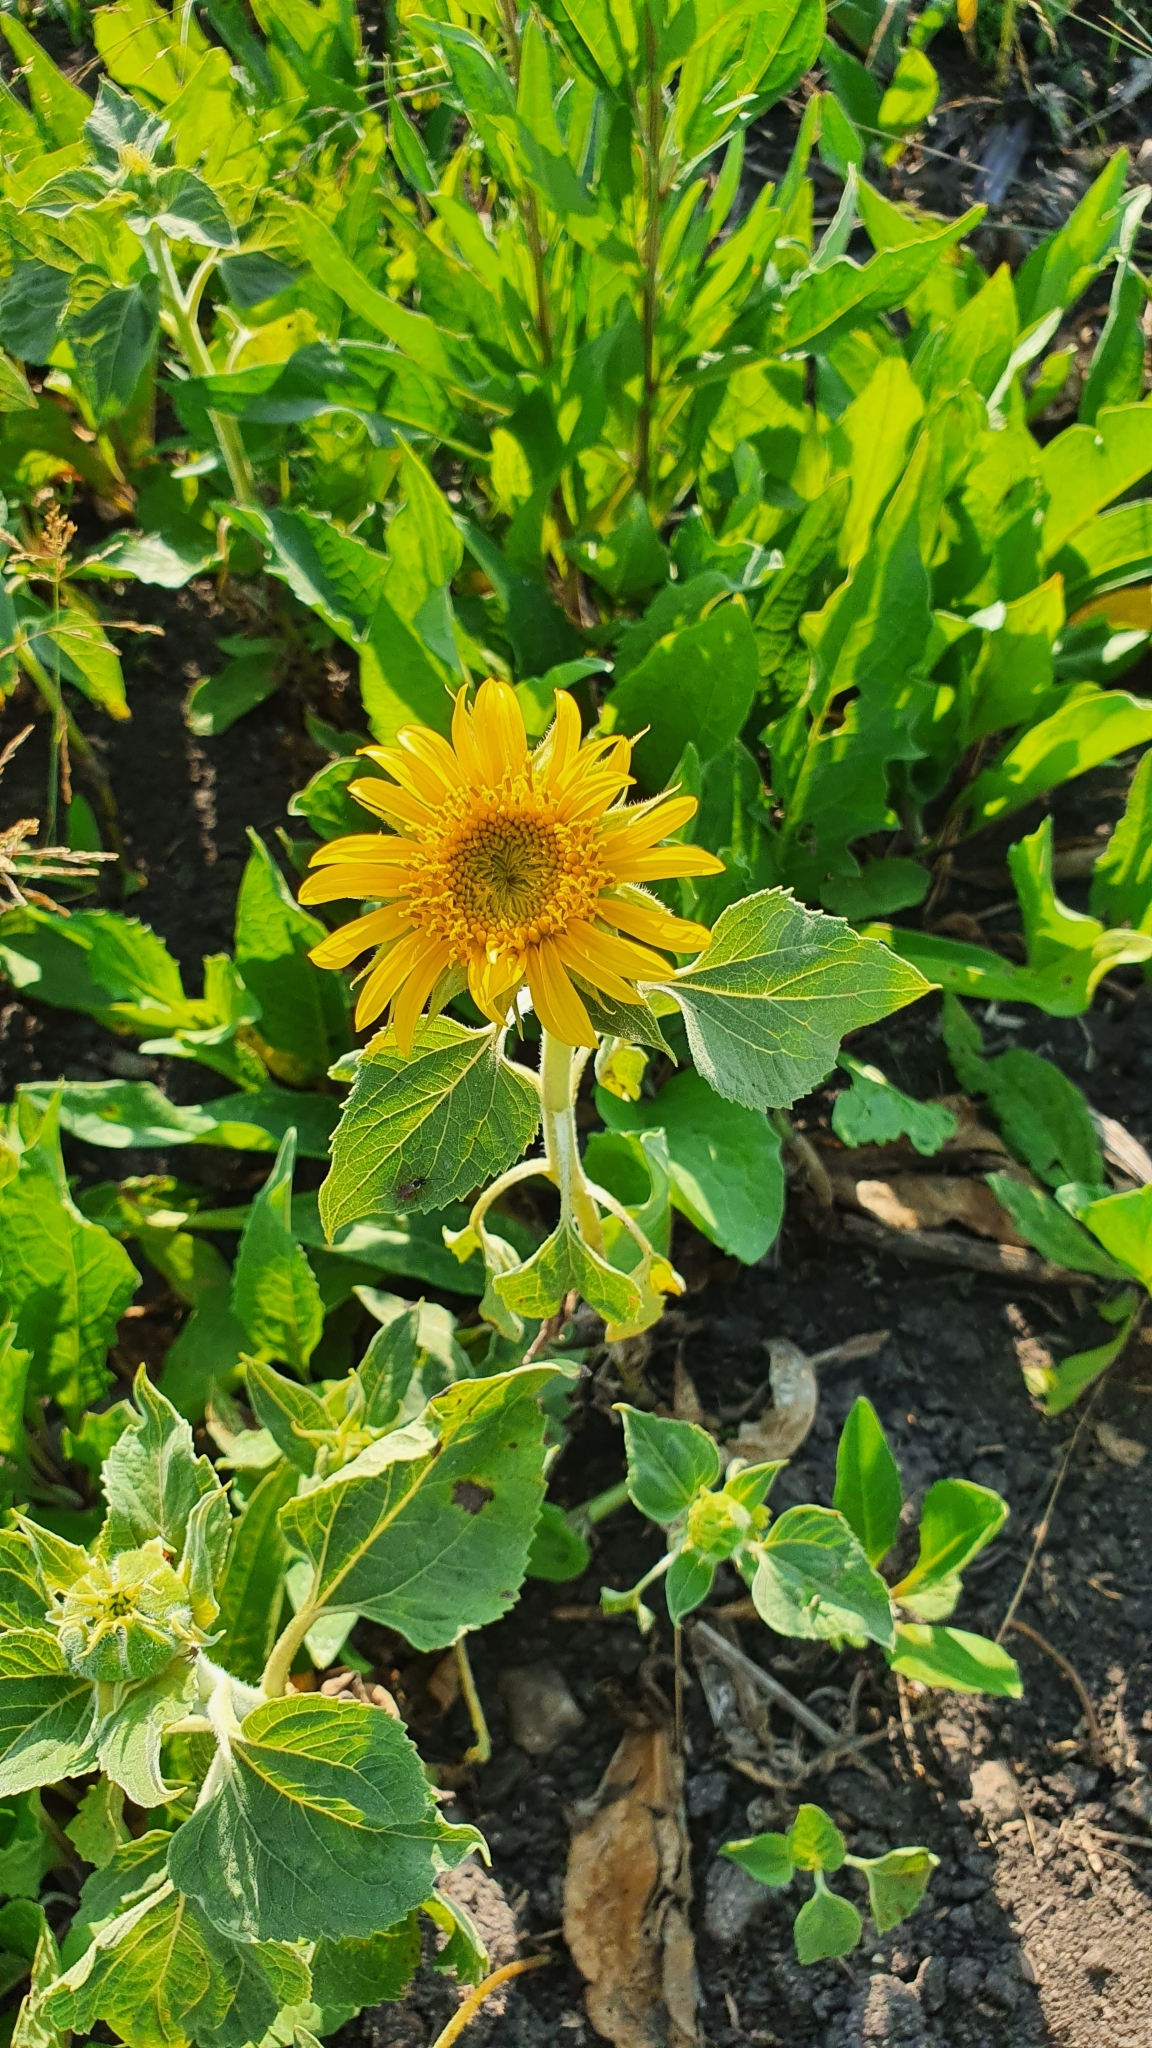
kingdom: Plantae
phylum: Tracheophyta
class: Magnoliopsida
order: Asterales
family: Asteraceae
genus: Helianthus
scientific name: Helianthus annuus
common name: Sunflower
